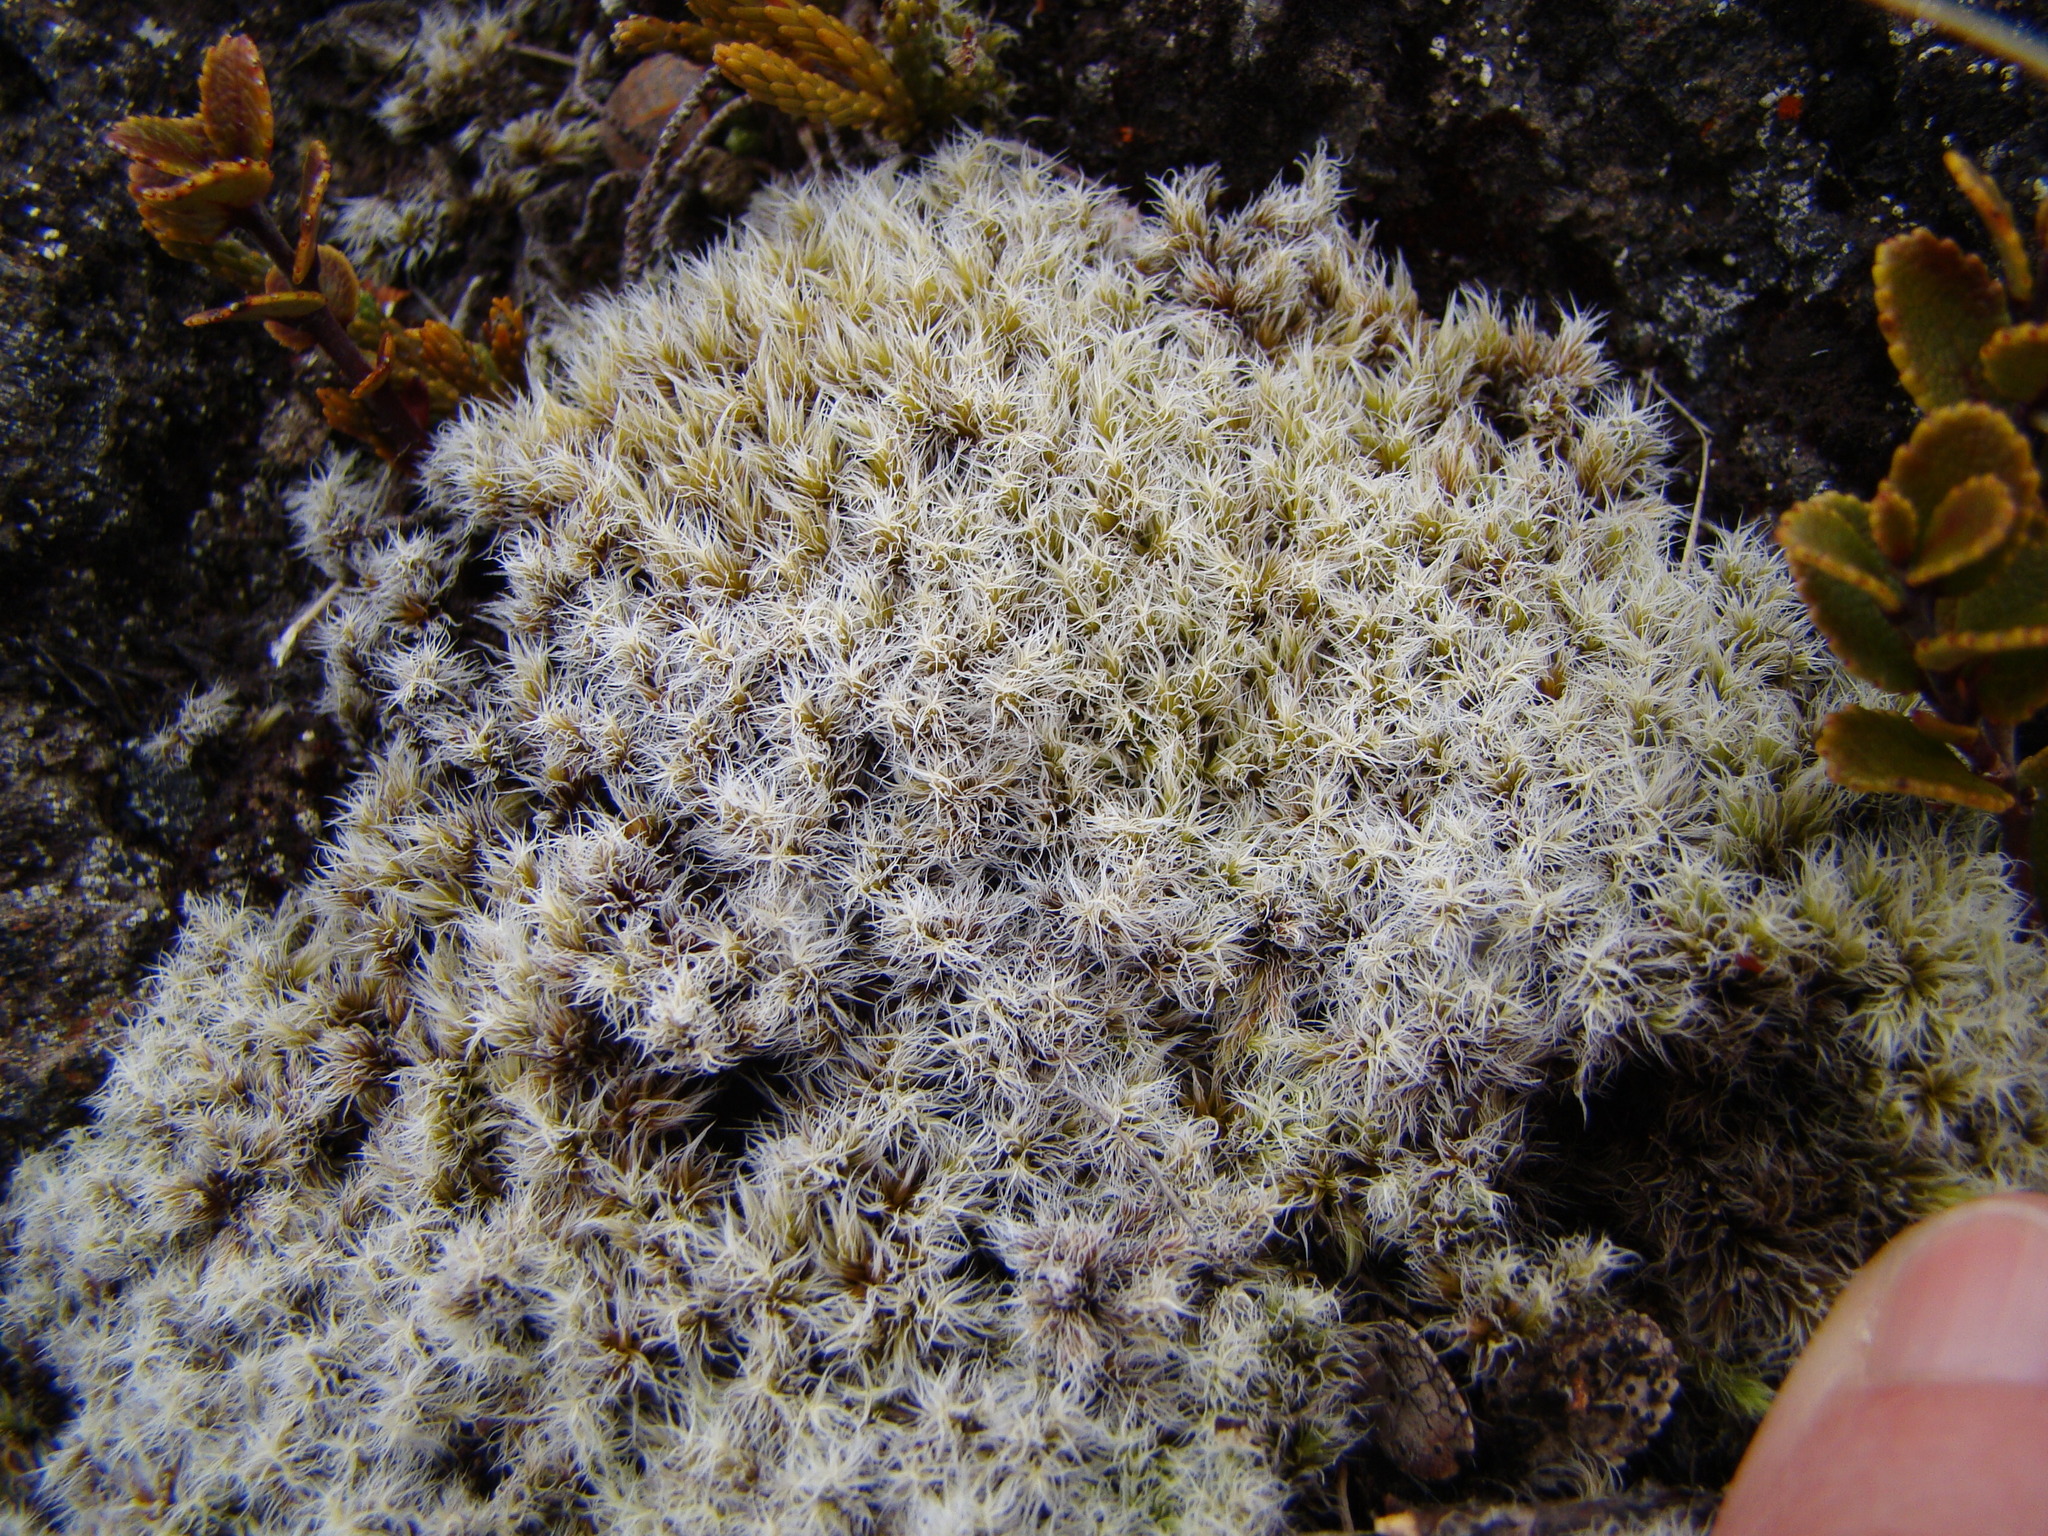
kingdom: Plantae
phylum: Bryophyta
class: Bryopsida
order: Grimmiales
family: Grimmiaceae
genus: Racomitrium
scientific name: Racomitrium lanuginosum
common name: Hoary rock moss
